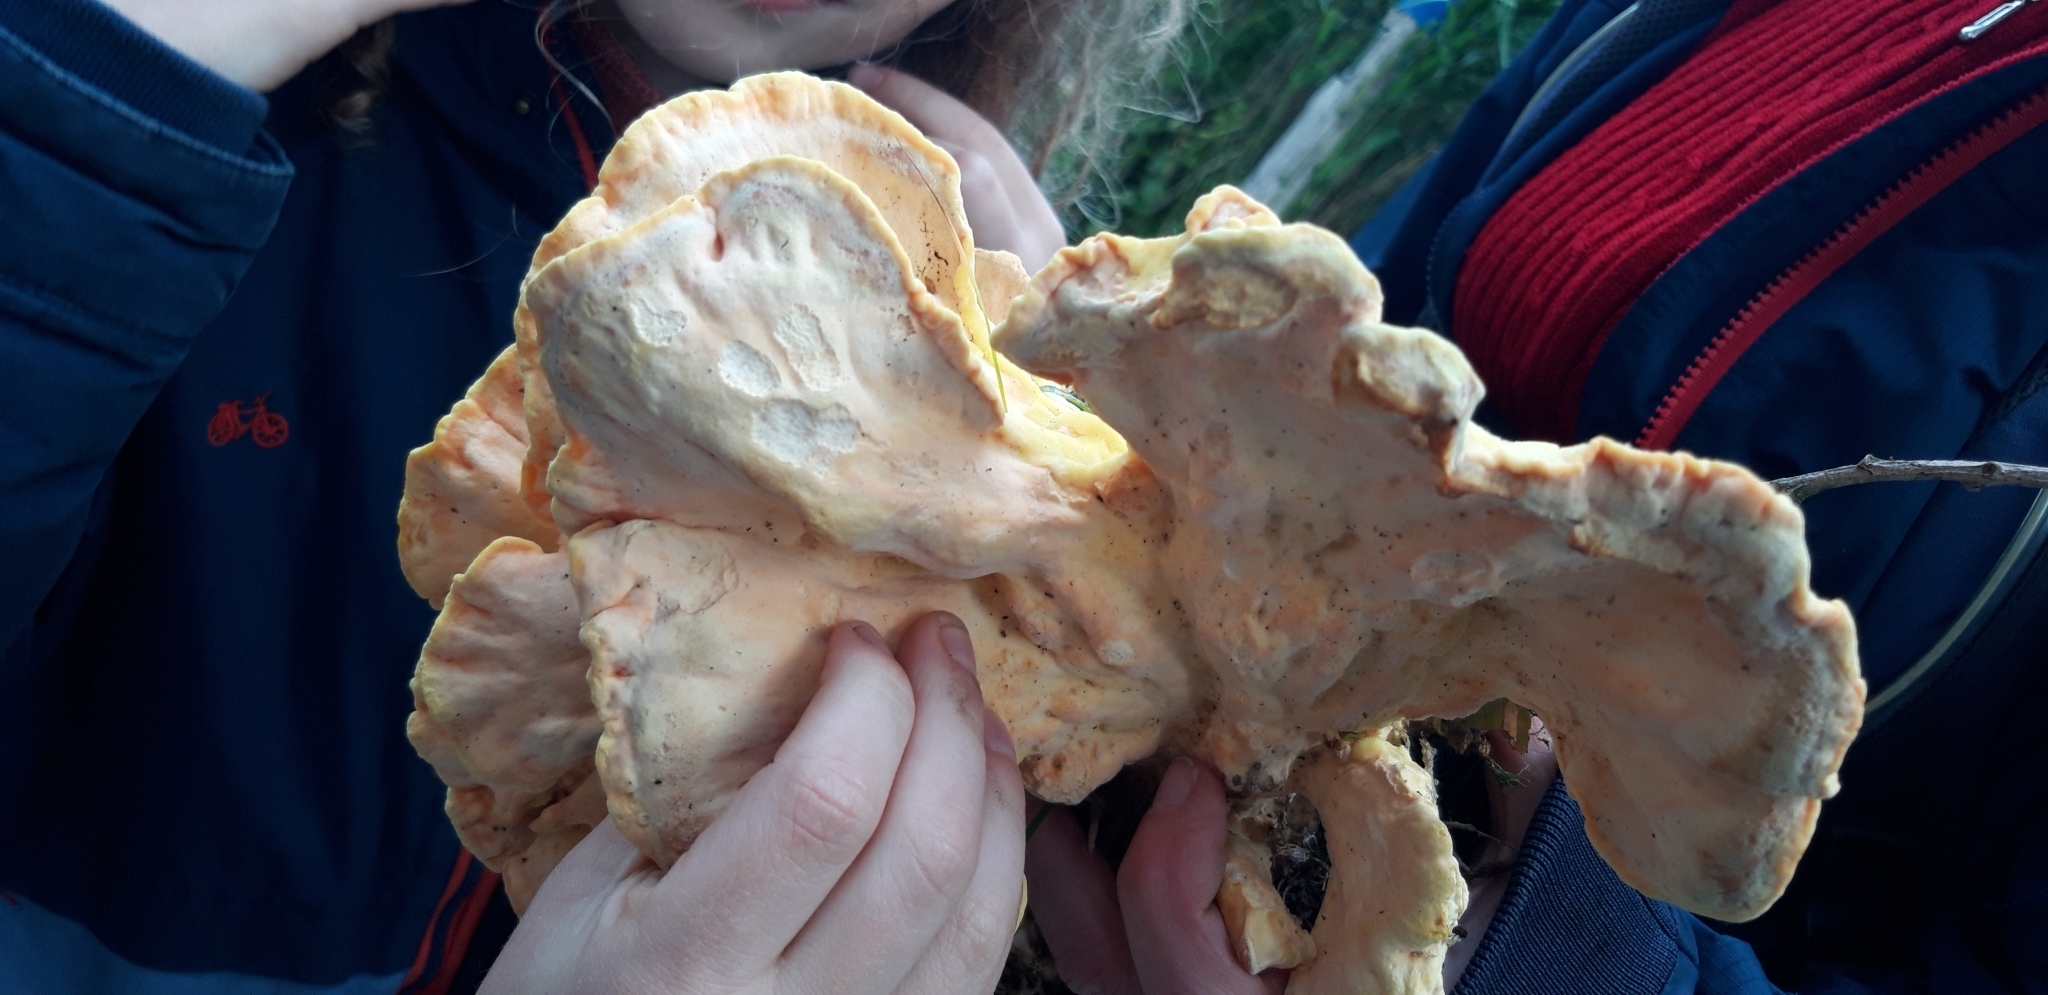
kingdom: Fungi
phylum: Basidiomycota
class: Agaricomycetes
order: Polyporales
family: Laetiporaceae
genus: Laetiporus
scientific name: Laetiporus sulphureus
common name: Chicken of the woods
